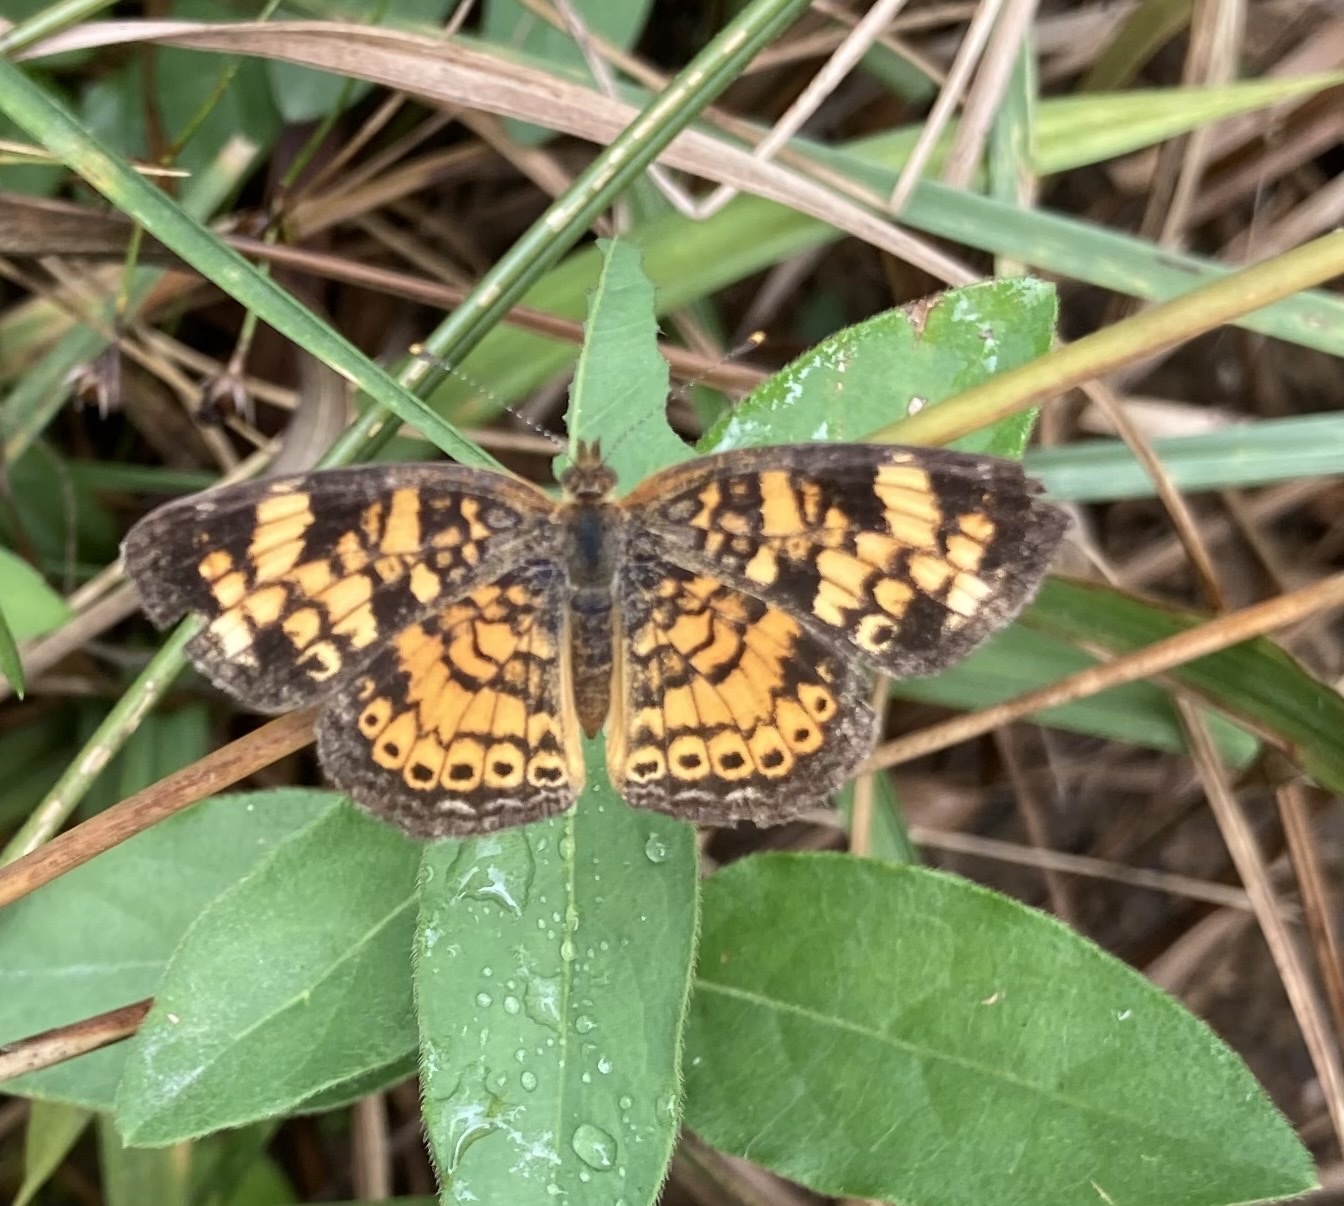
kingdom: Animalia
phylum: Arthropoda
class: Insecta
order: Lepidoptera
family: Nymphalidae
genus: Phyciodes
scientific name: Phyciodes tharos
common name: Pearl crescent
